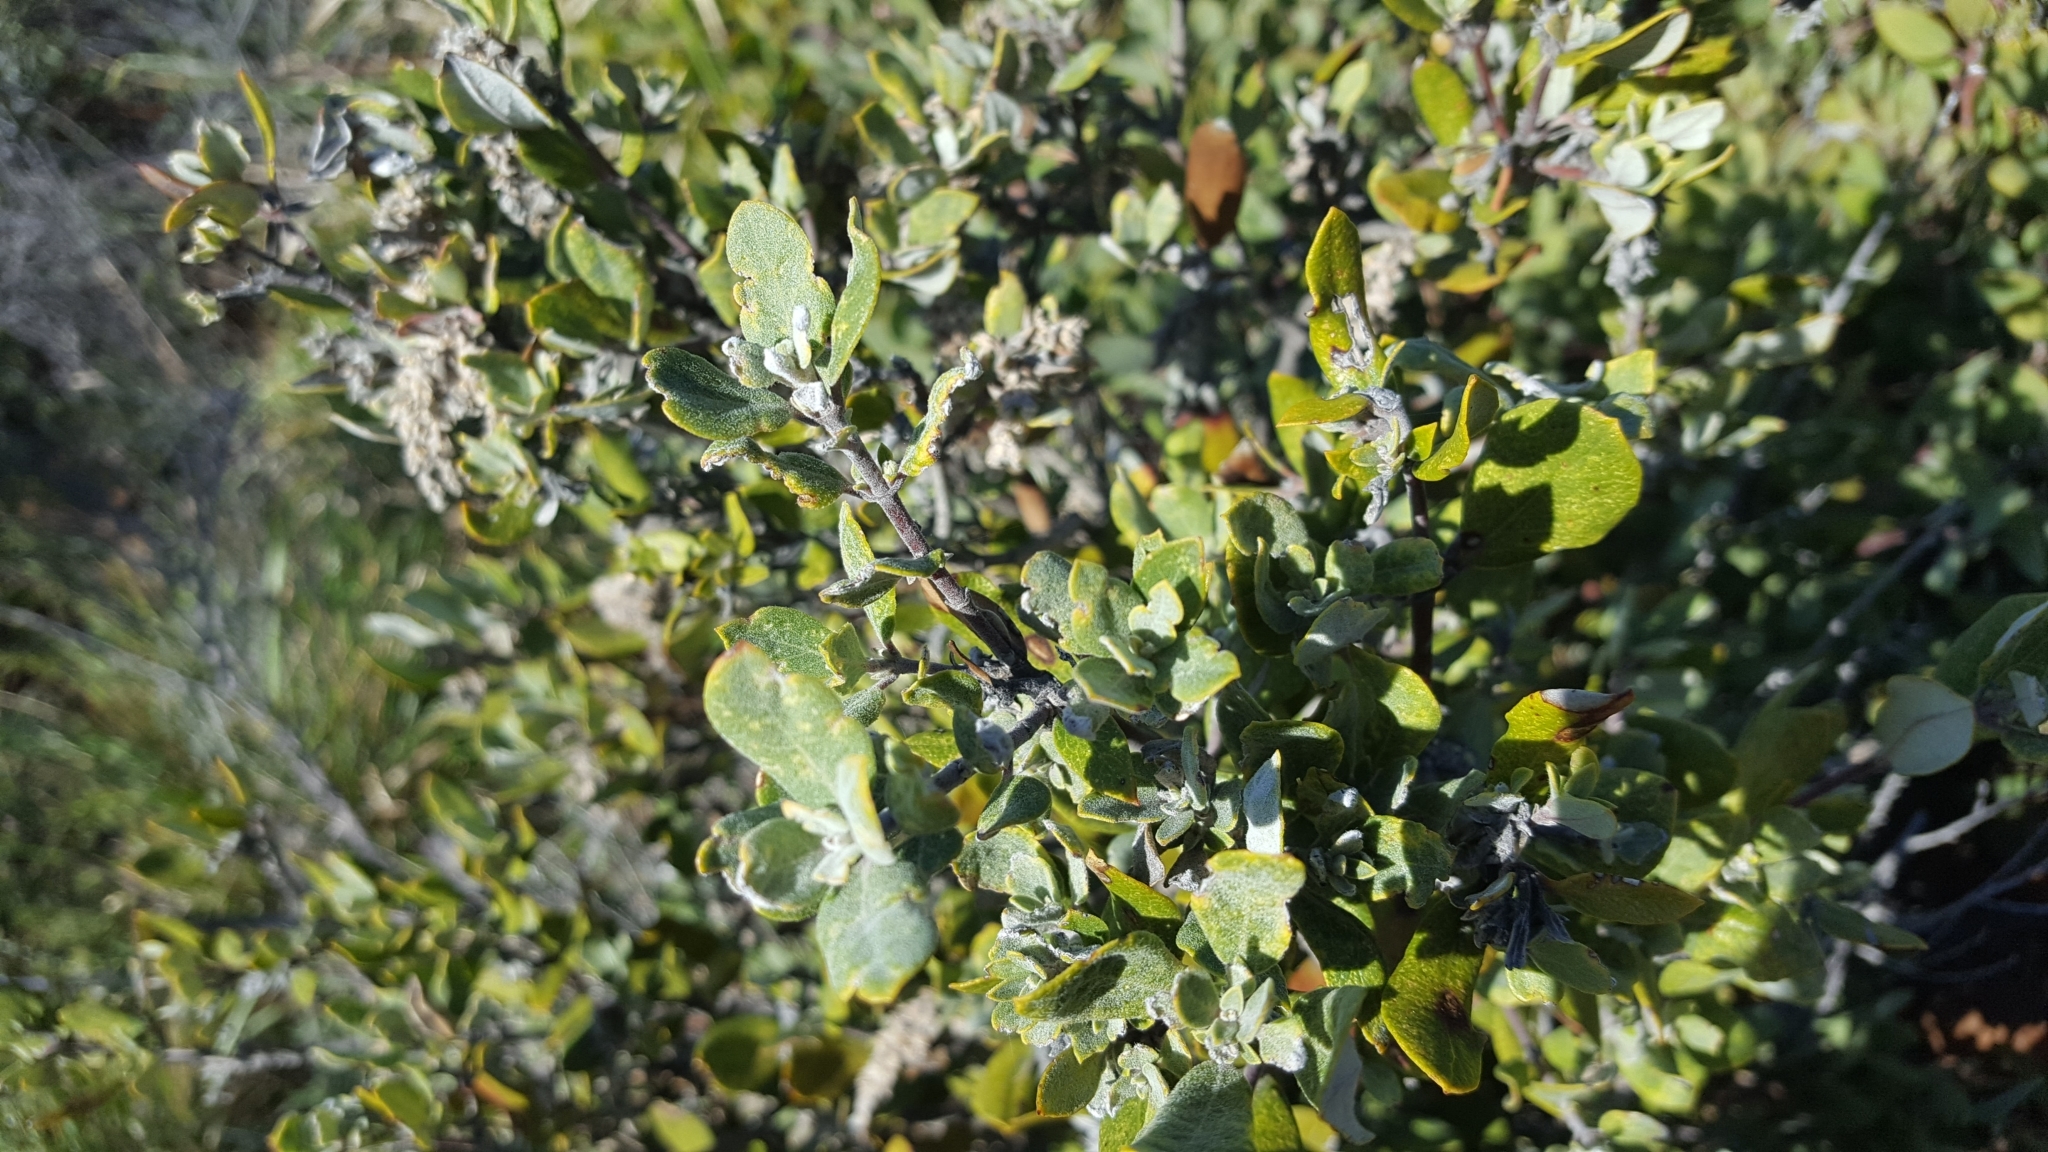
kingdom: Plantae
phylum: Tracheophyta
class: Magnoliopsida
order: Garryales
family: Garryaceae
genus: Garrya
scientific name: Garrya veatchii
